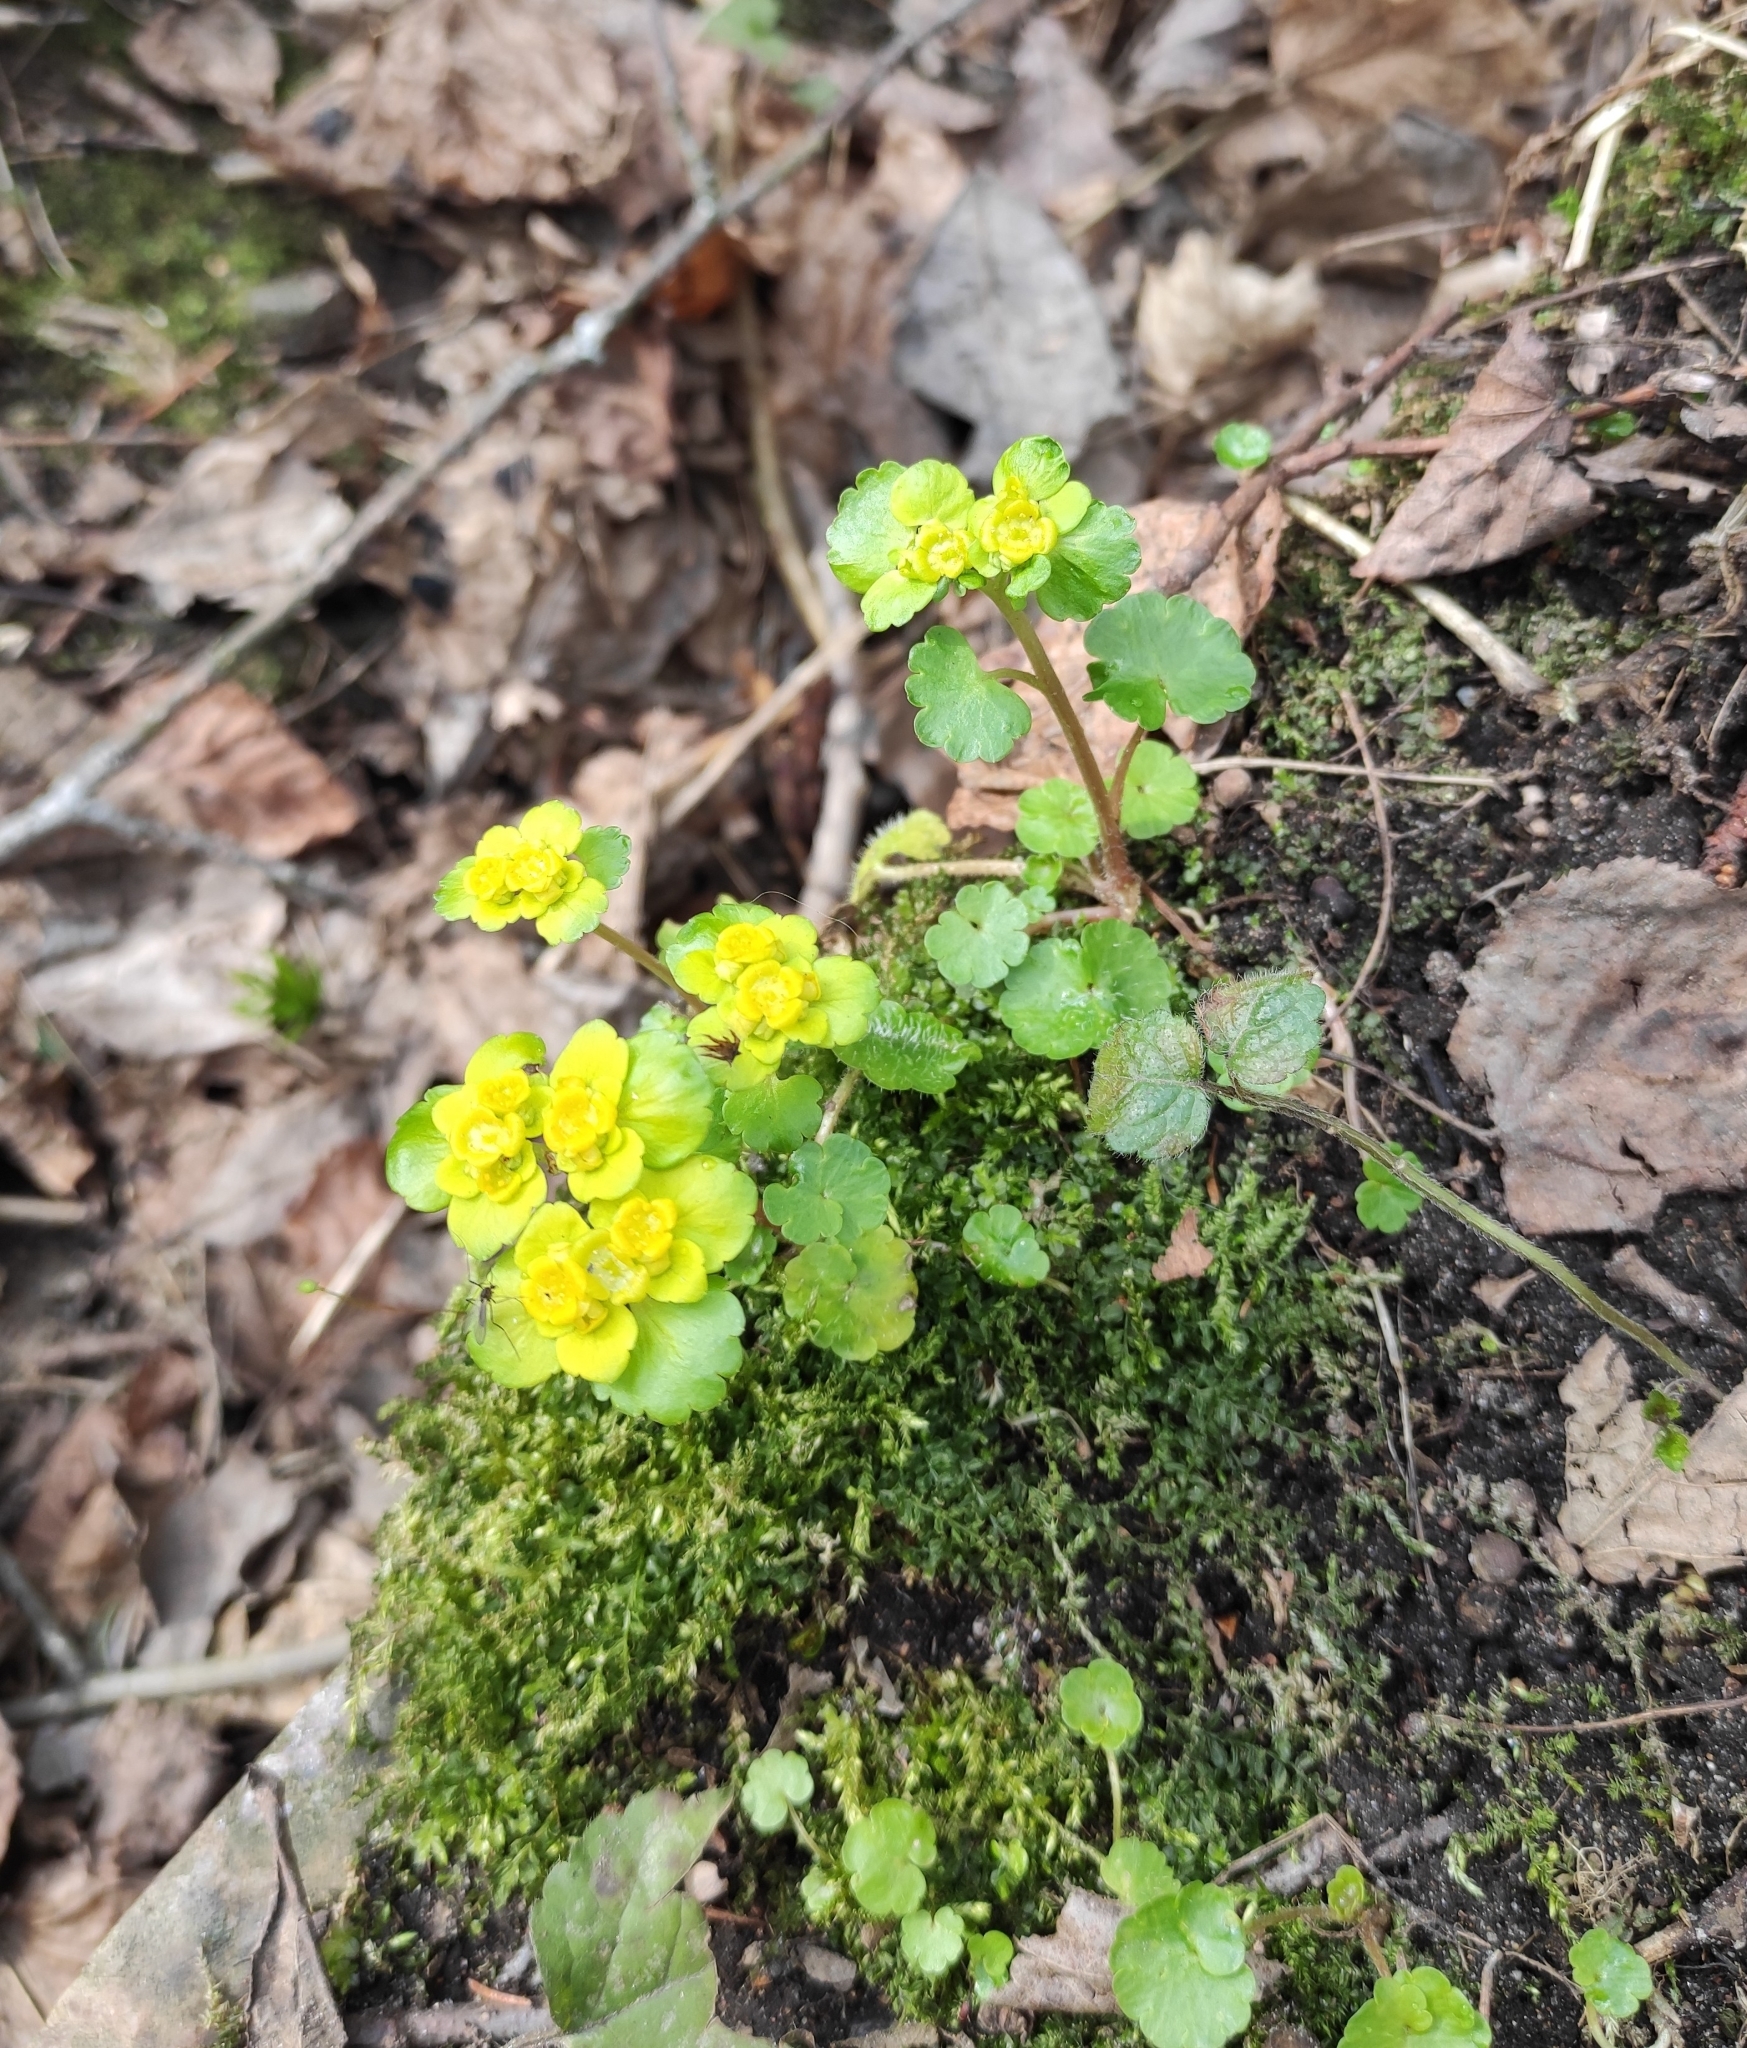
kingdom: Plantae
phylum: Tracheophyta
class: Magnoliopsida
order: Saxifragales
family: Saxifragaceae
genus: Chrysosplenium
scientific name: Chrysosplenium alternifolium
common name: Alternate-leaved golden-saxifrage
